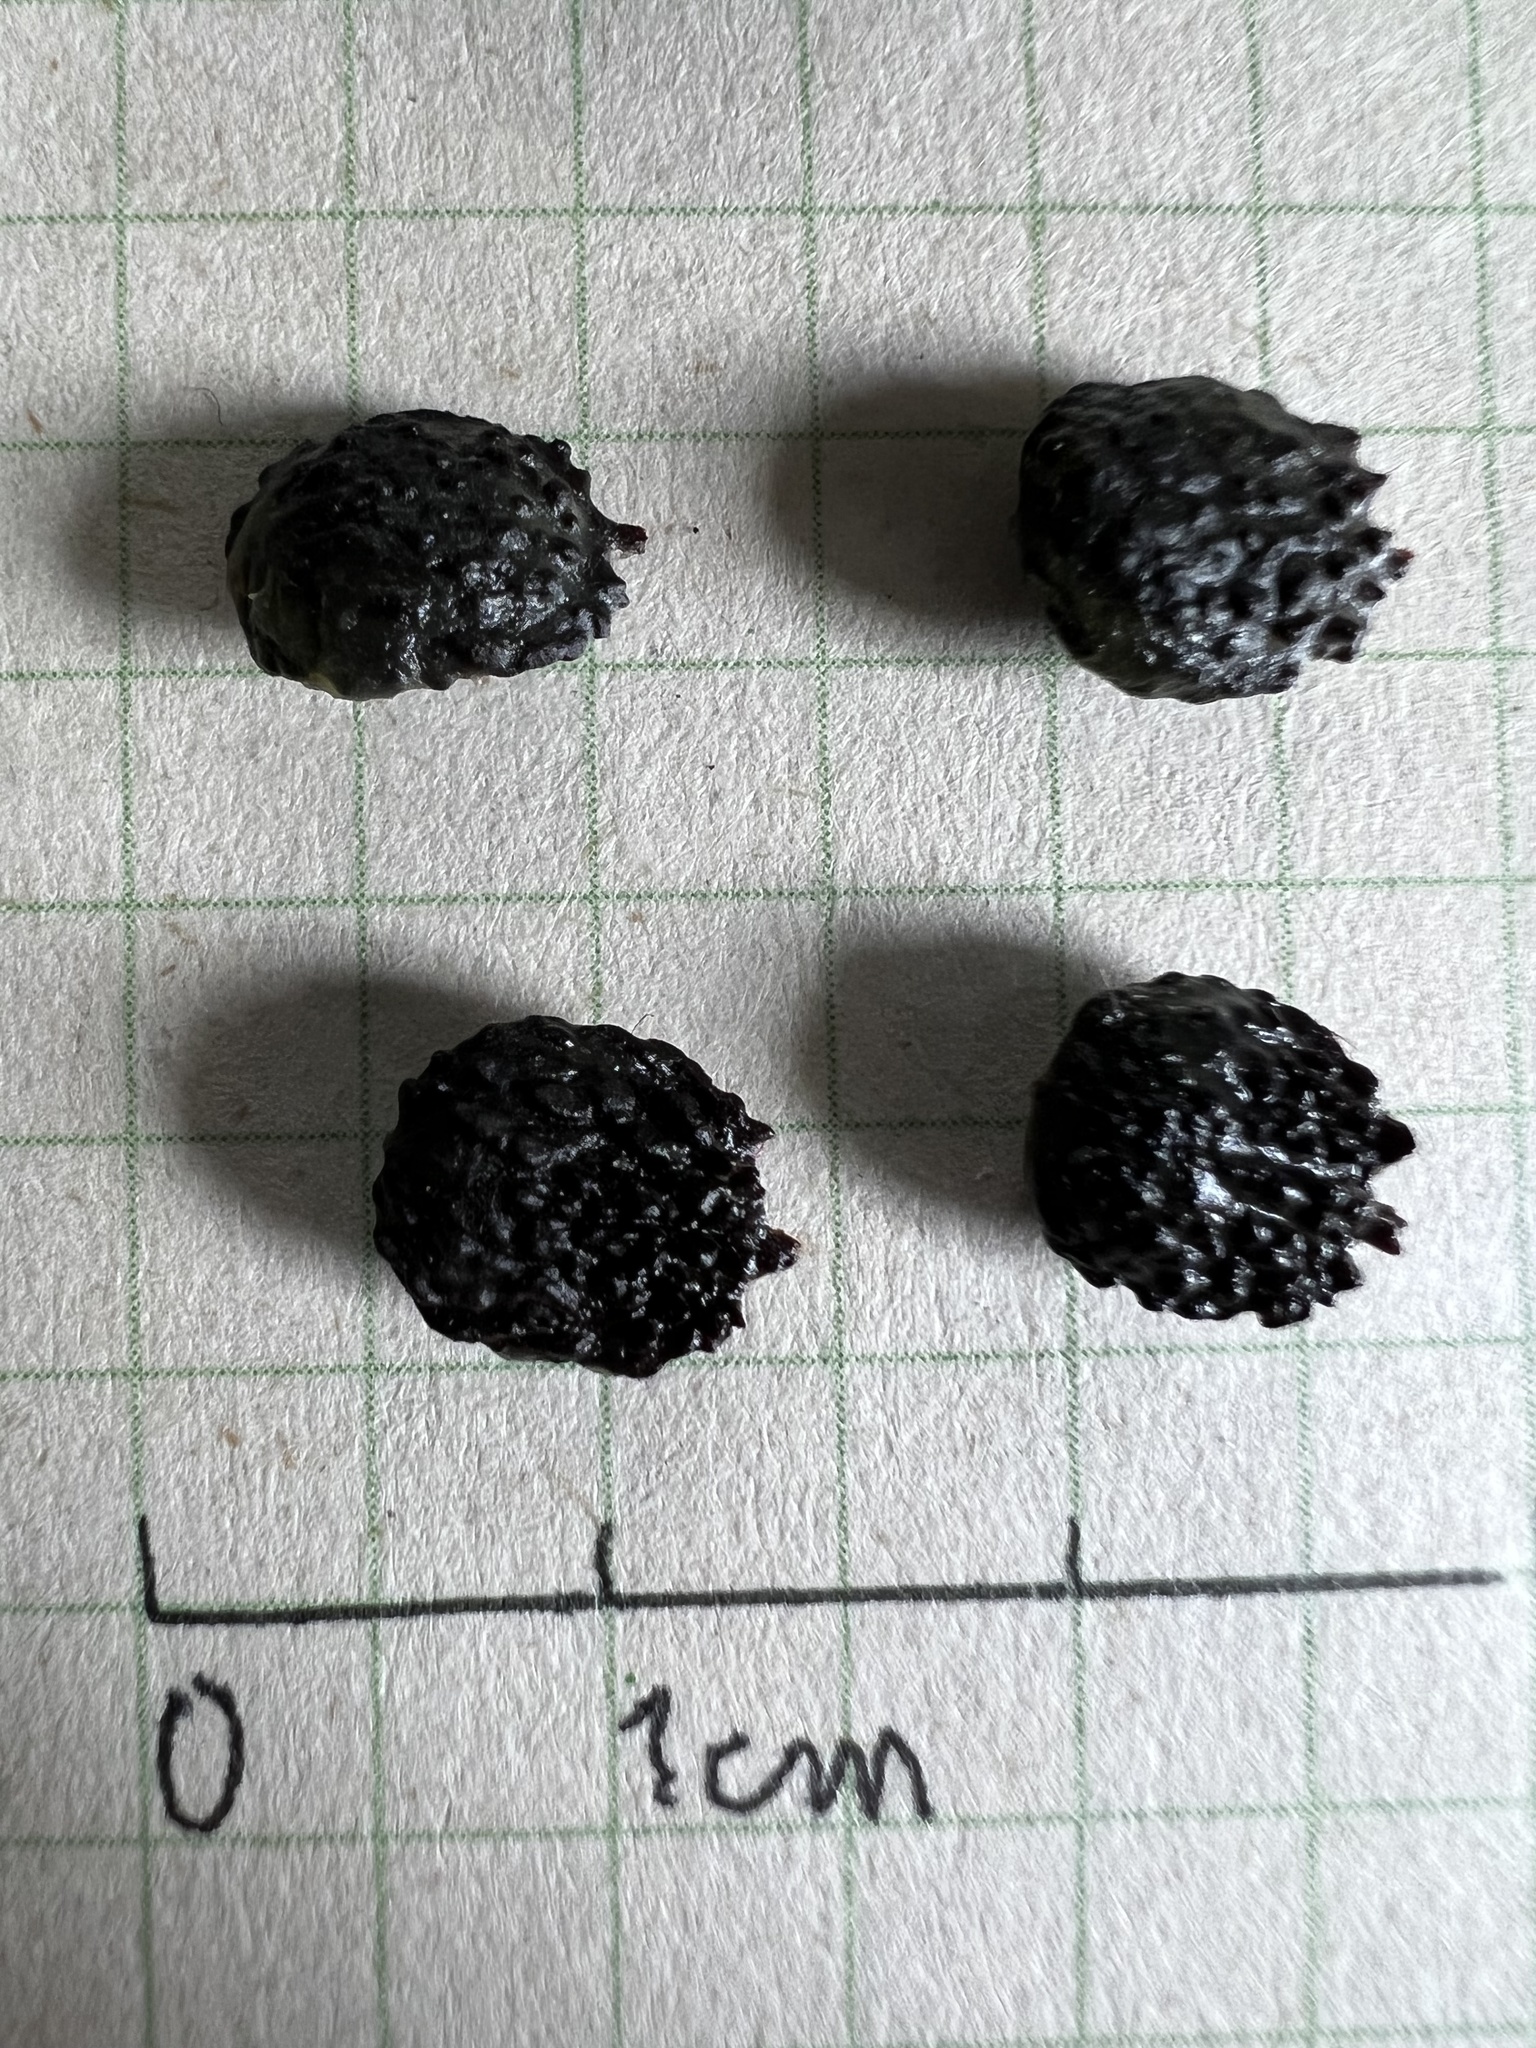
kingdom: Plantae
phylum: Tracheophyta
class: Magnoliopsida
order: Malpighiales
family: Euphorbiaceae
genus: Sapium
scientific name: Sapium stylare
